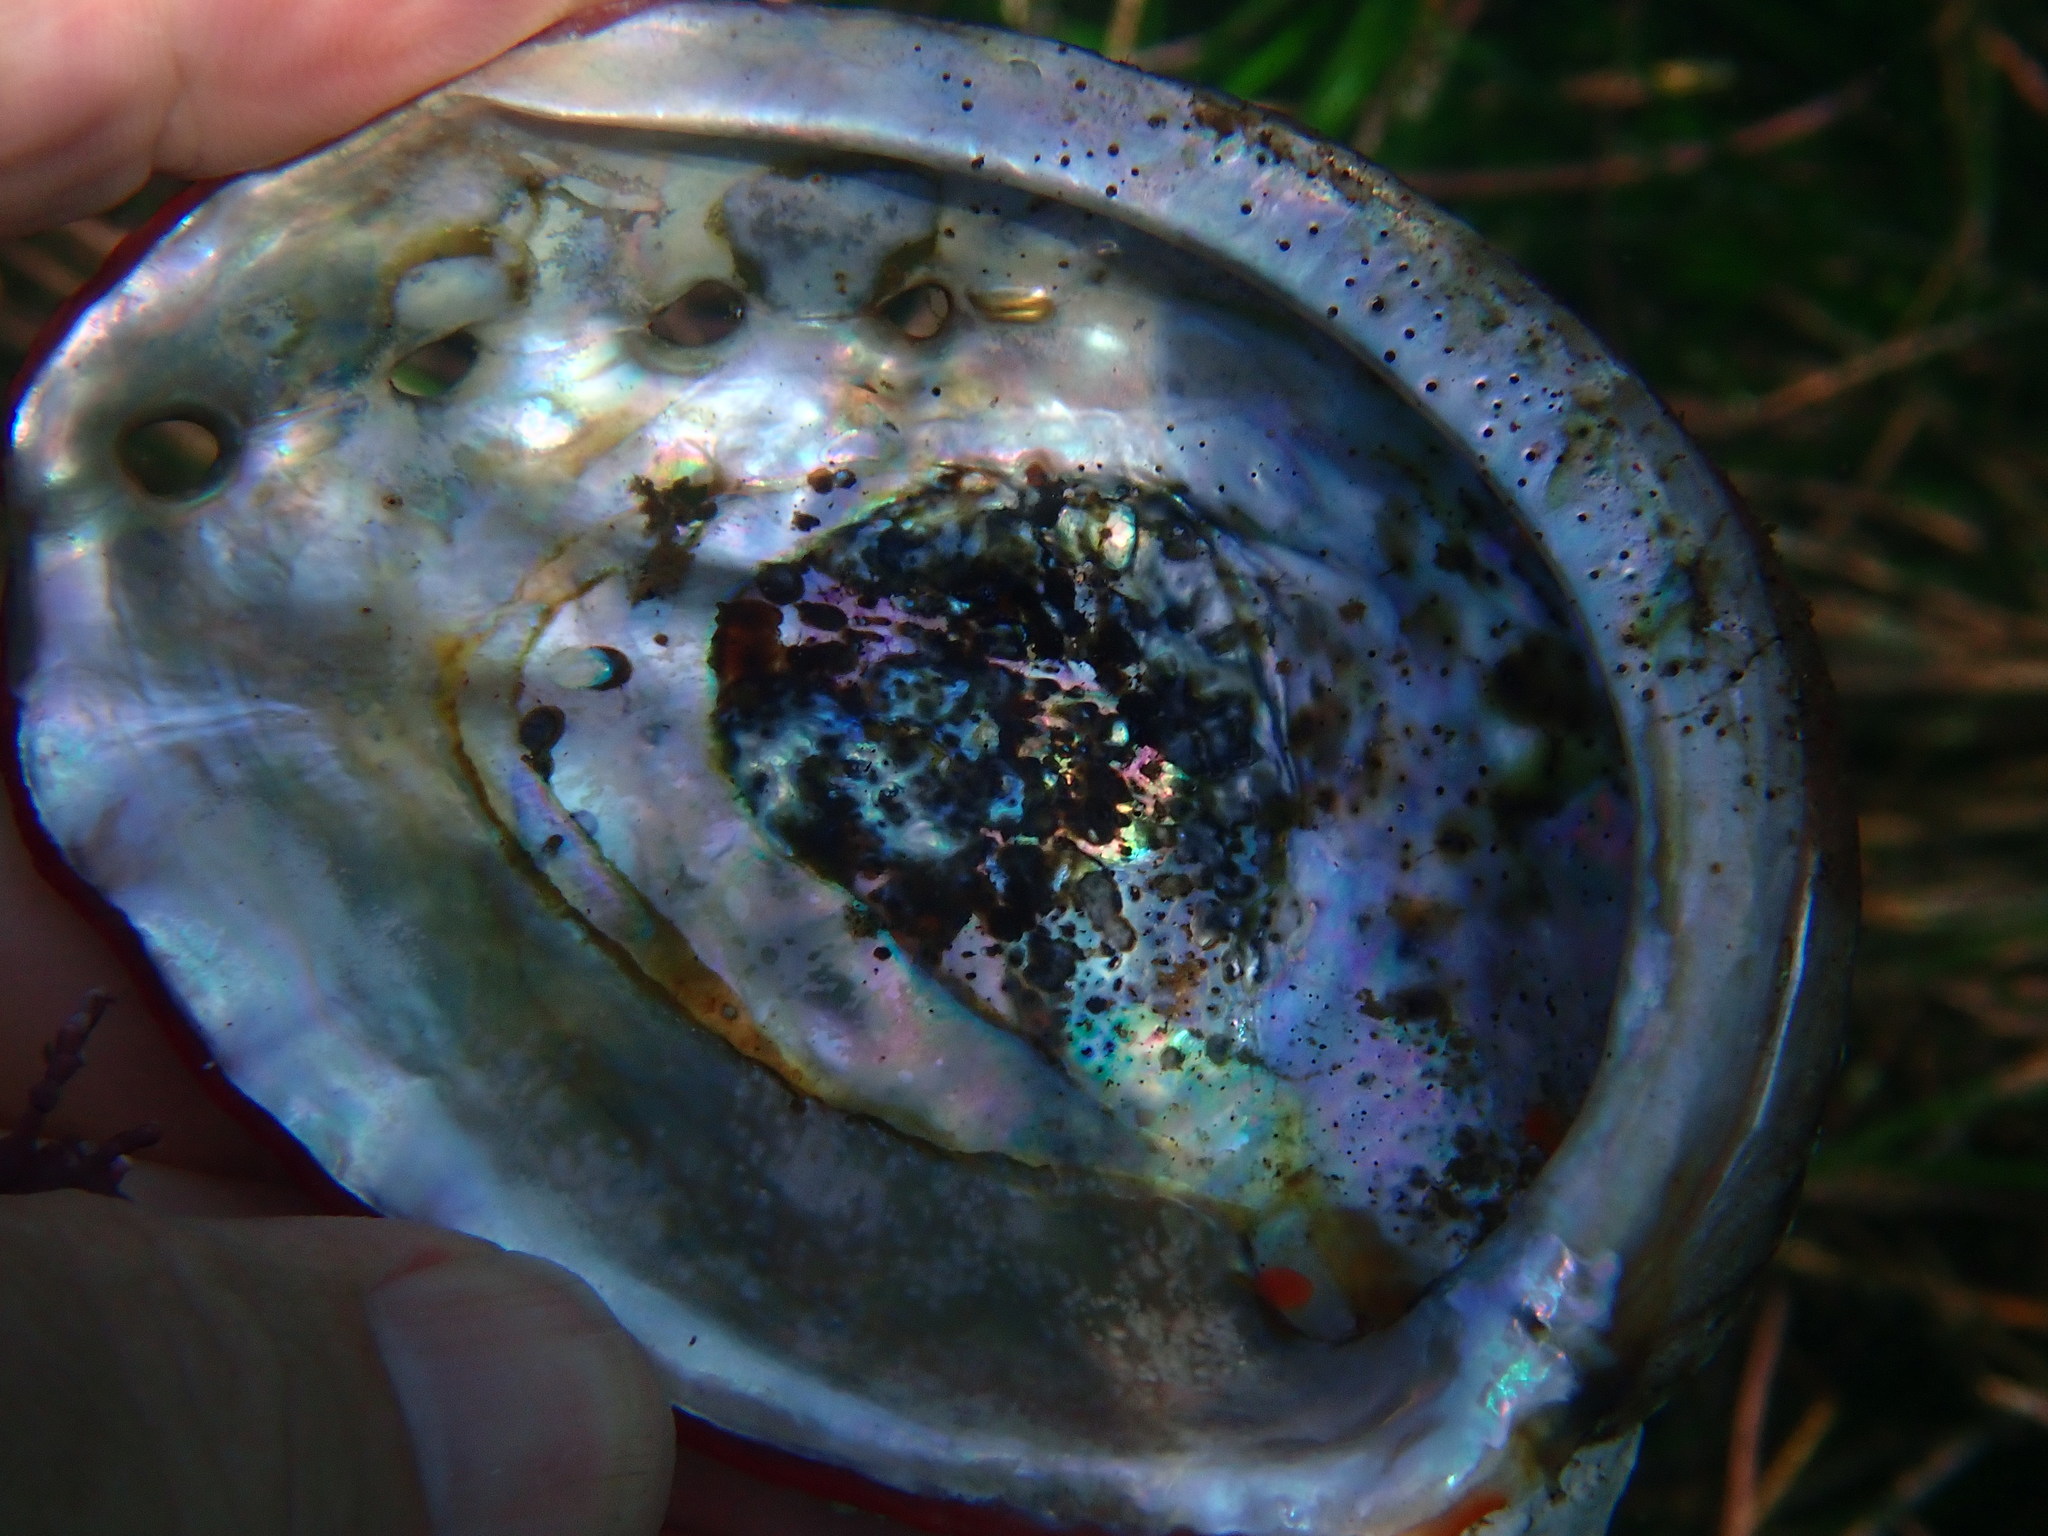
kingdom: Animalia
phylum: Mollusca
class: Gastropoda
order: Lepetellida
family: Haliotidae
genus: Haliotis
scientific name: Haliotis rufescens
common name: Red abalone
